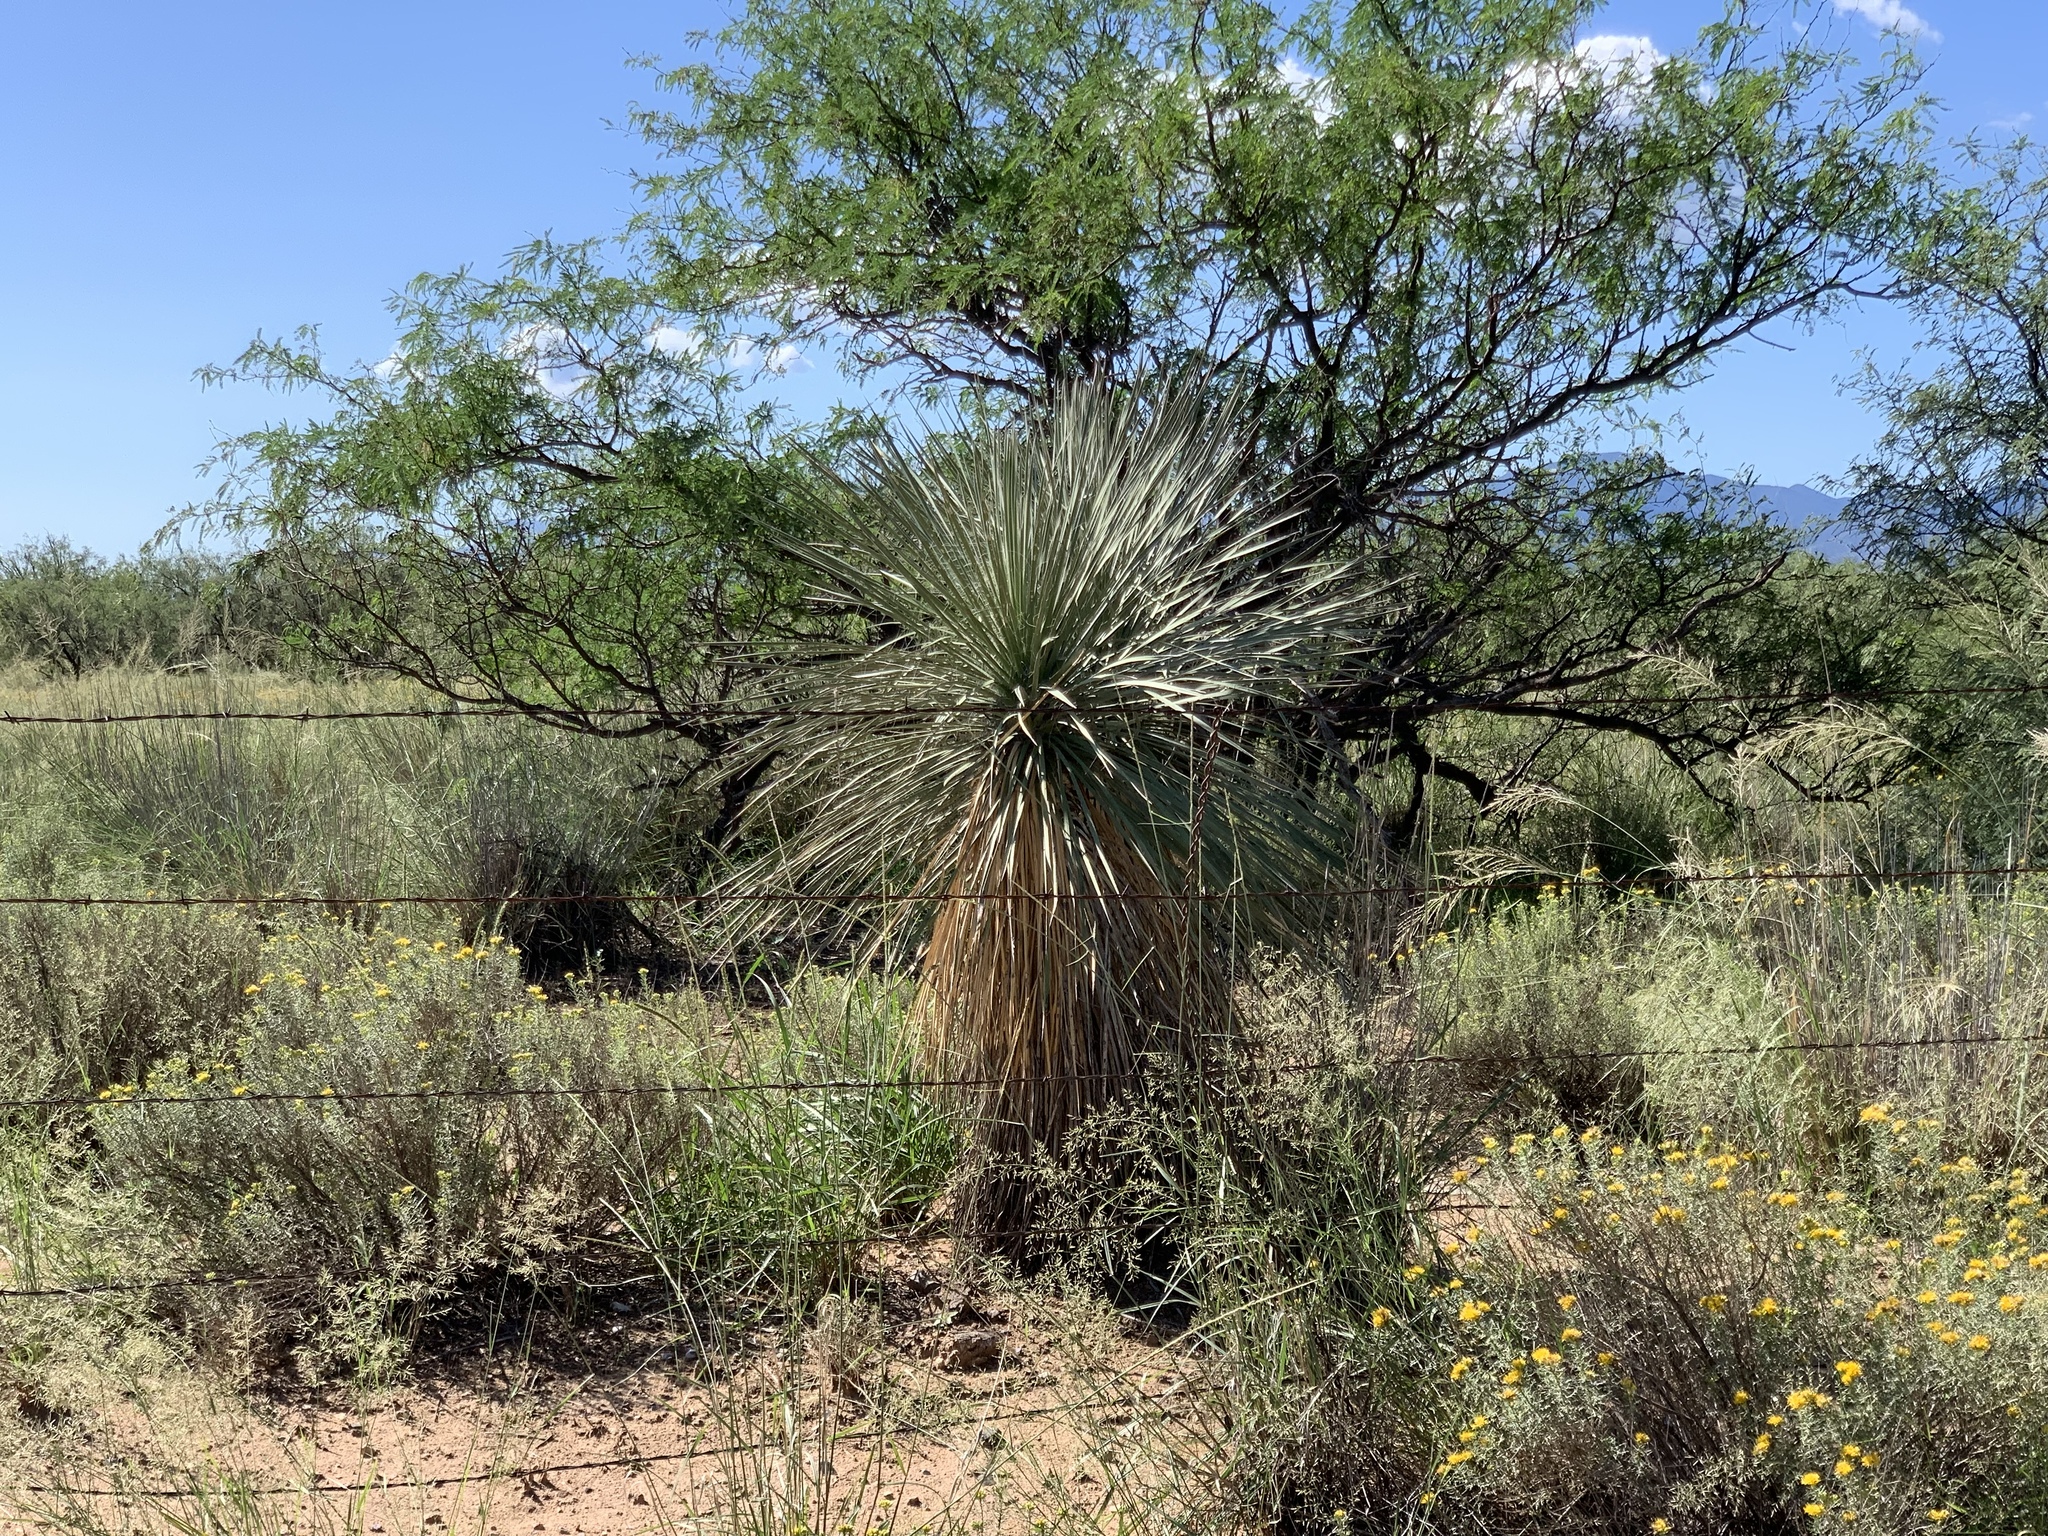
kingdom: Plantae
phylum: Tracheophyta
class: Liliopsida
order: Asparagales
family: Asparagaceae
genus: Yucca
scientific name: Yucca elata
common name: Palmella
